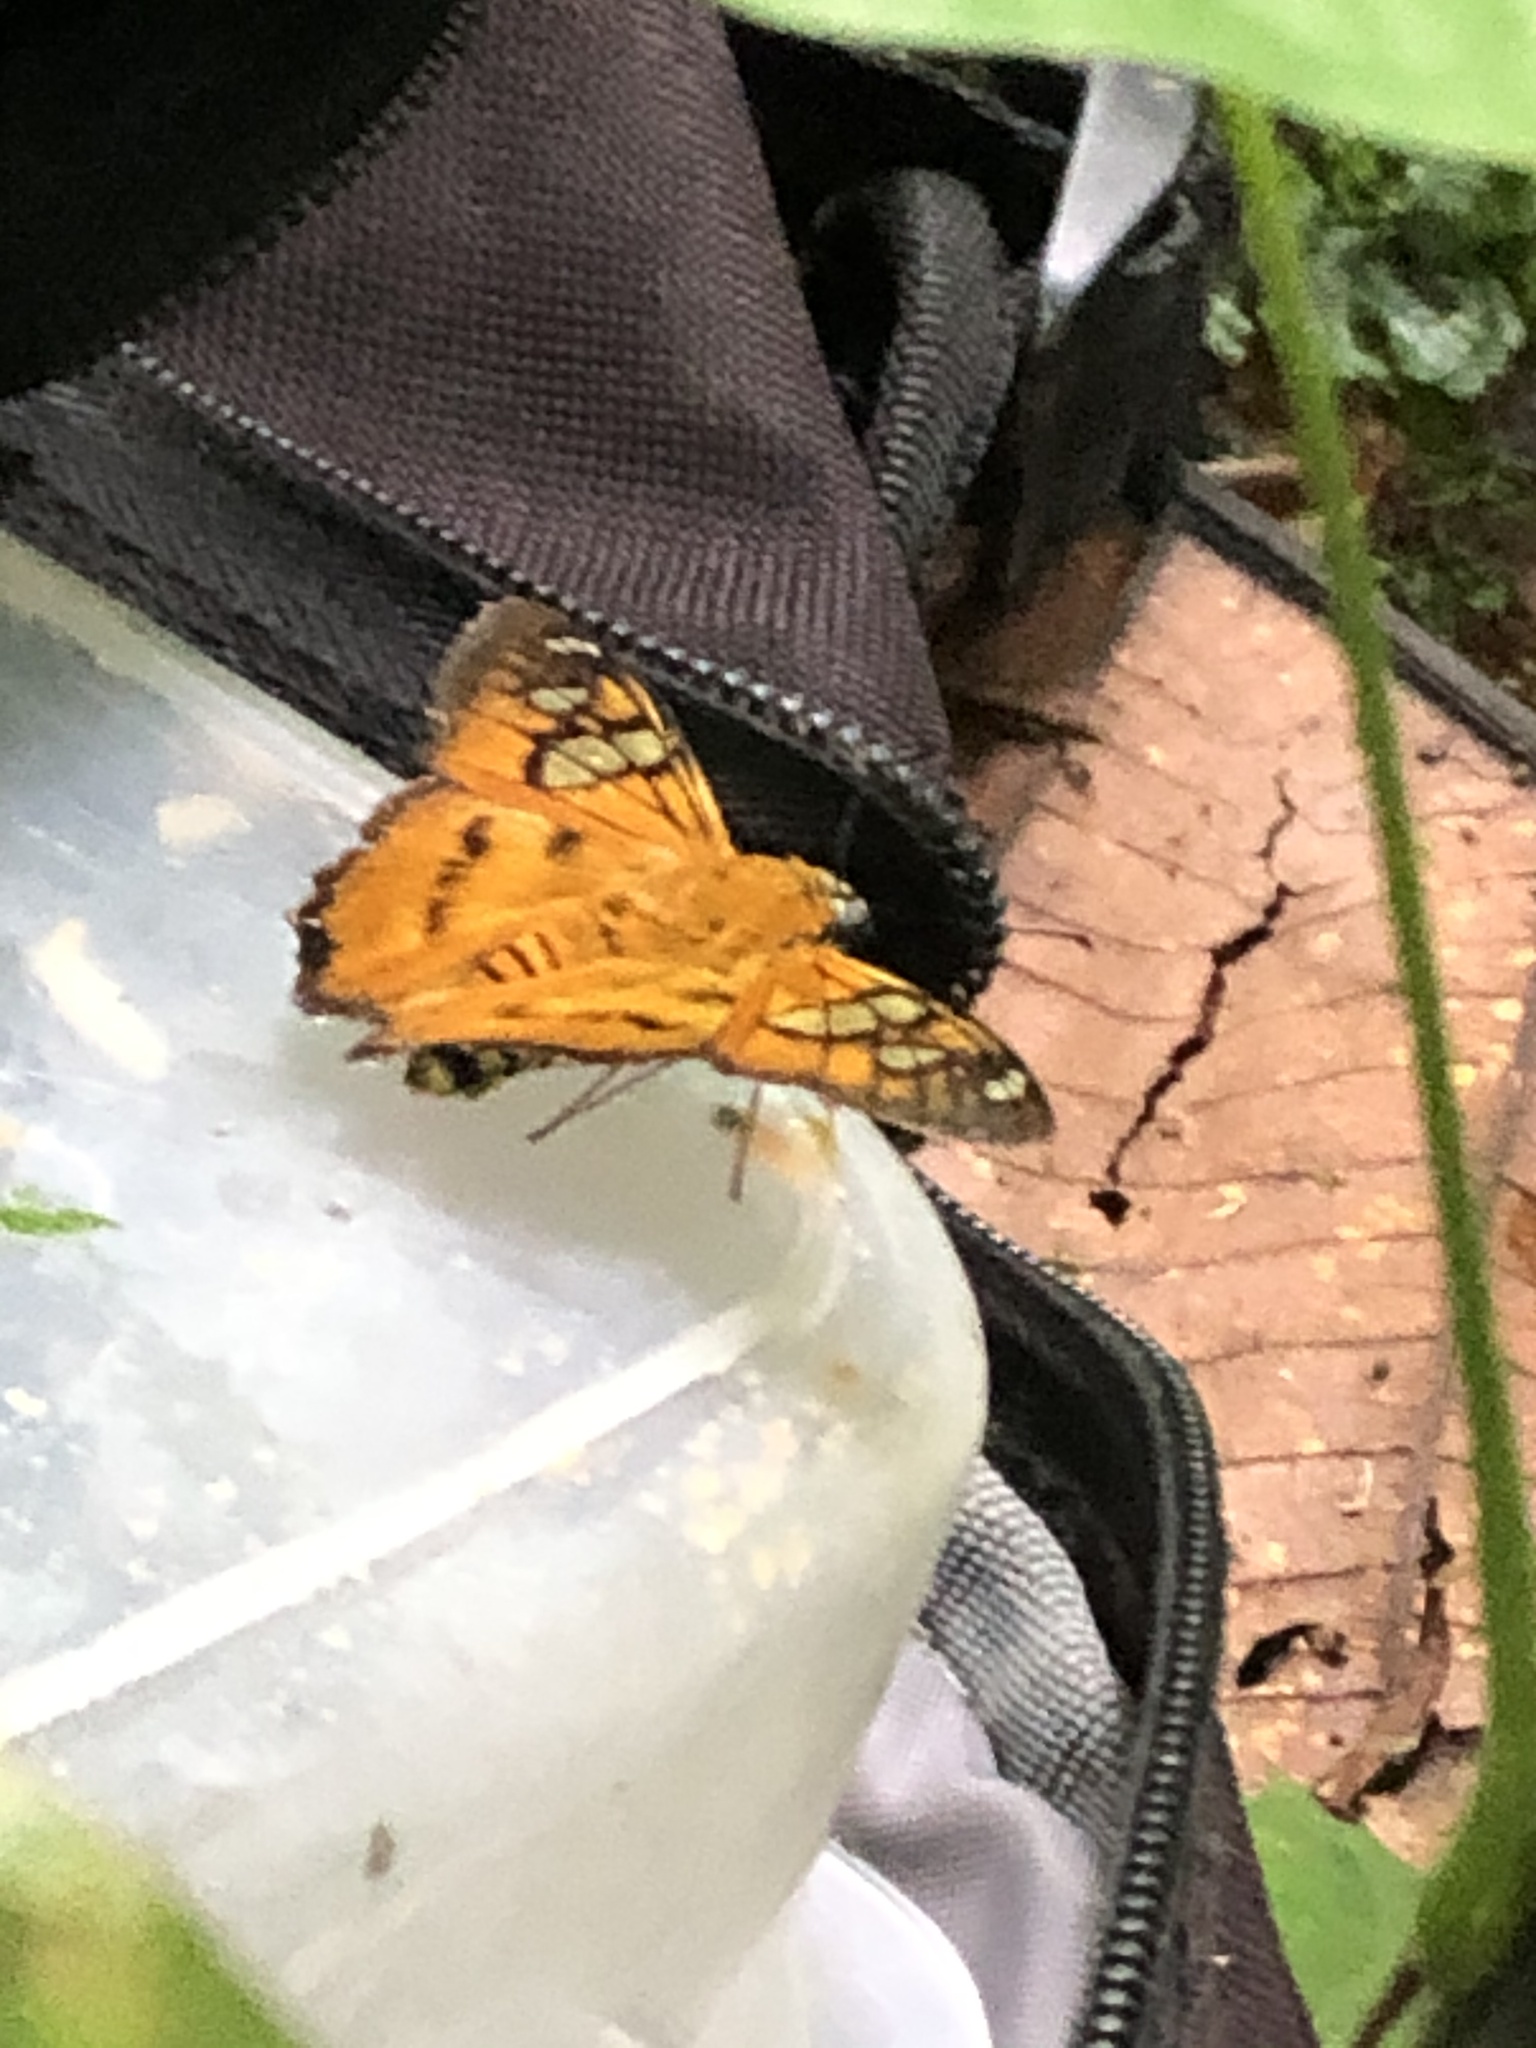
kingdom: Animalia
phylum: Arthropoda
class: Insecta
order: Lepidoptera
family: Hesperiidae
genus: Myscelus
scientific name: Myscelus epimachia
